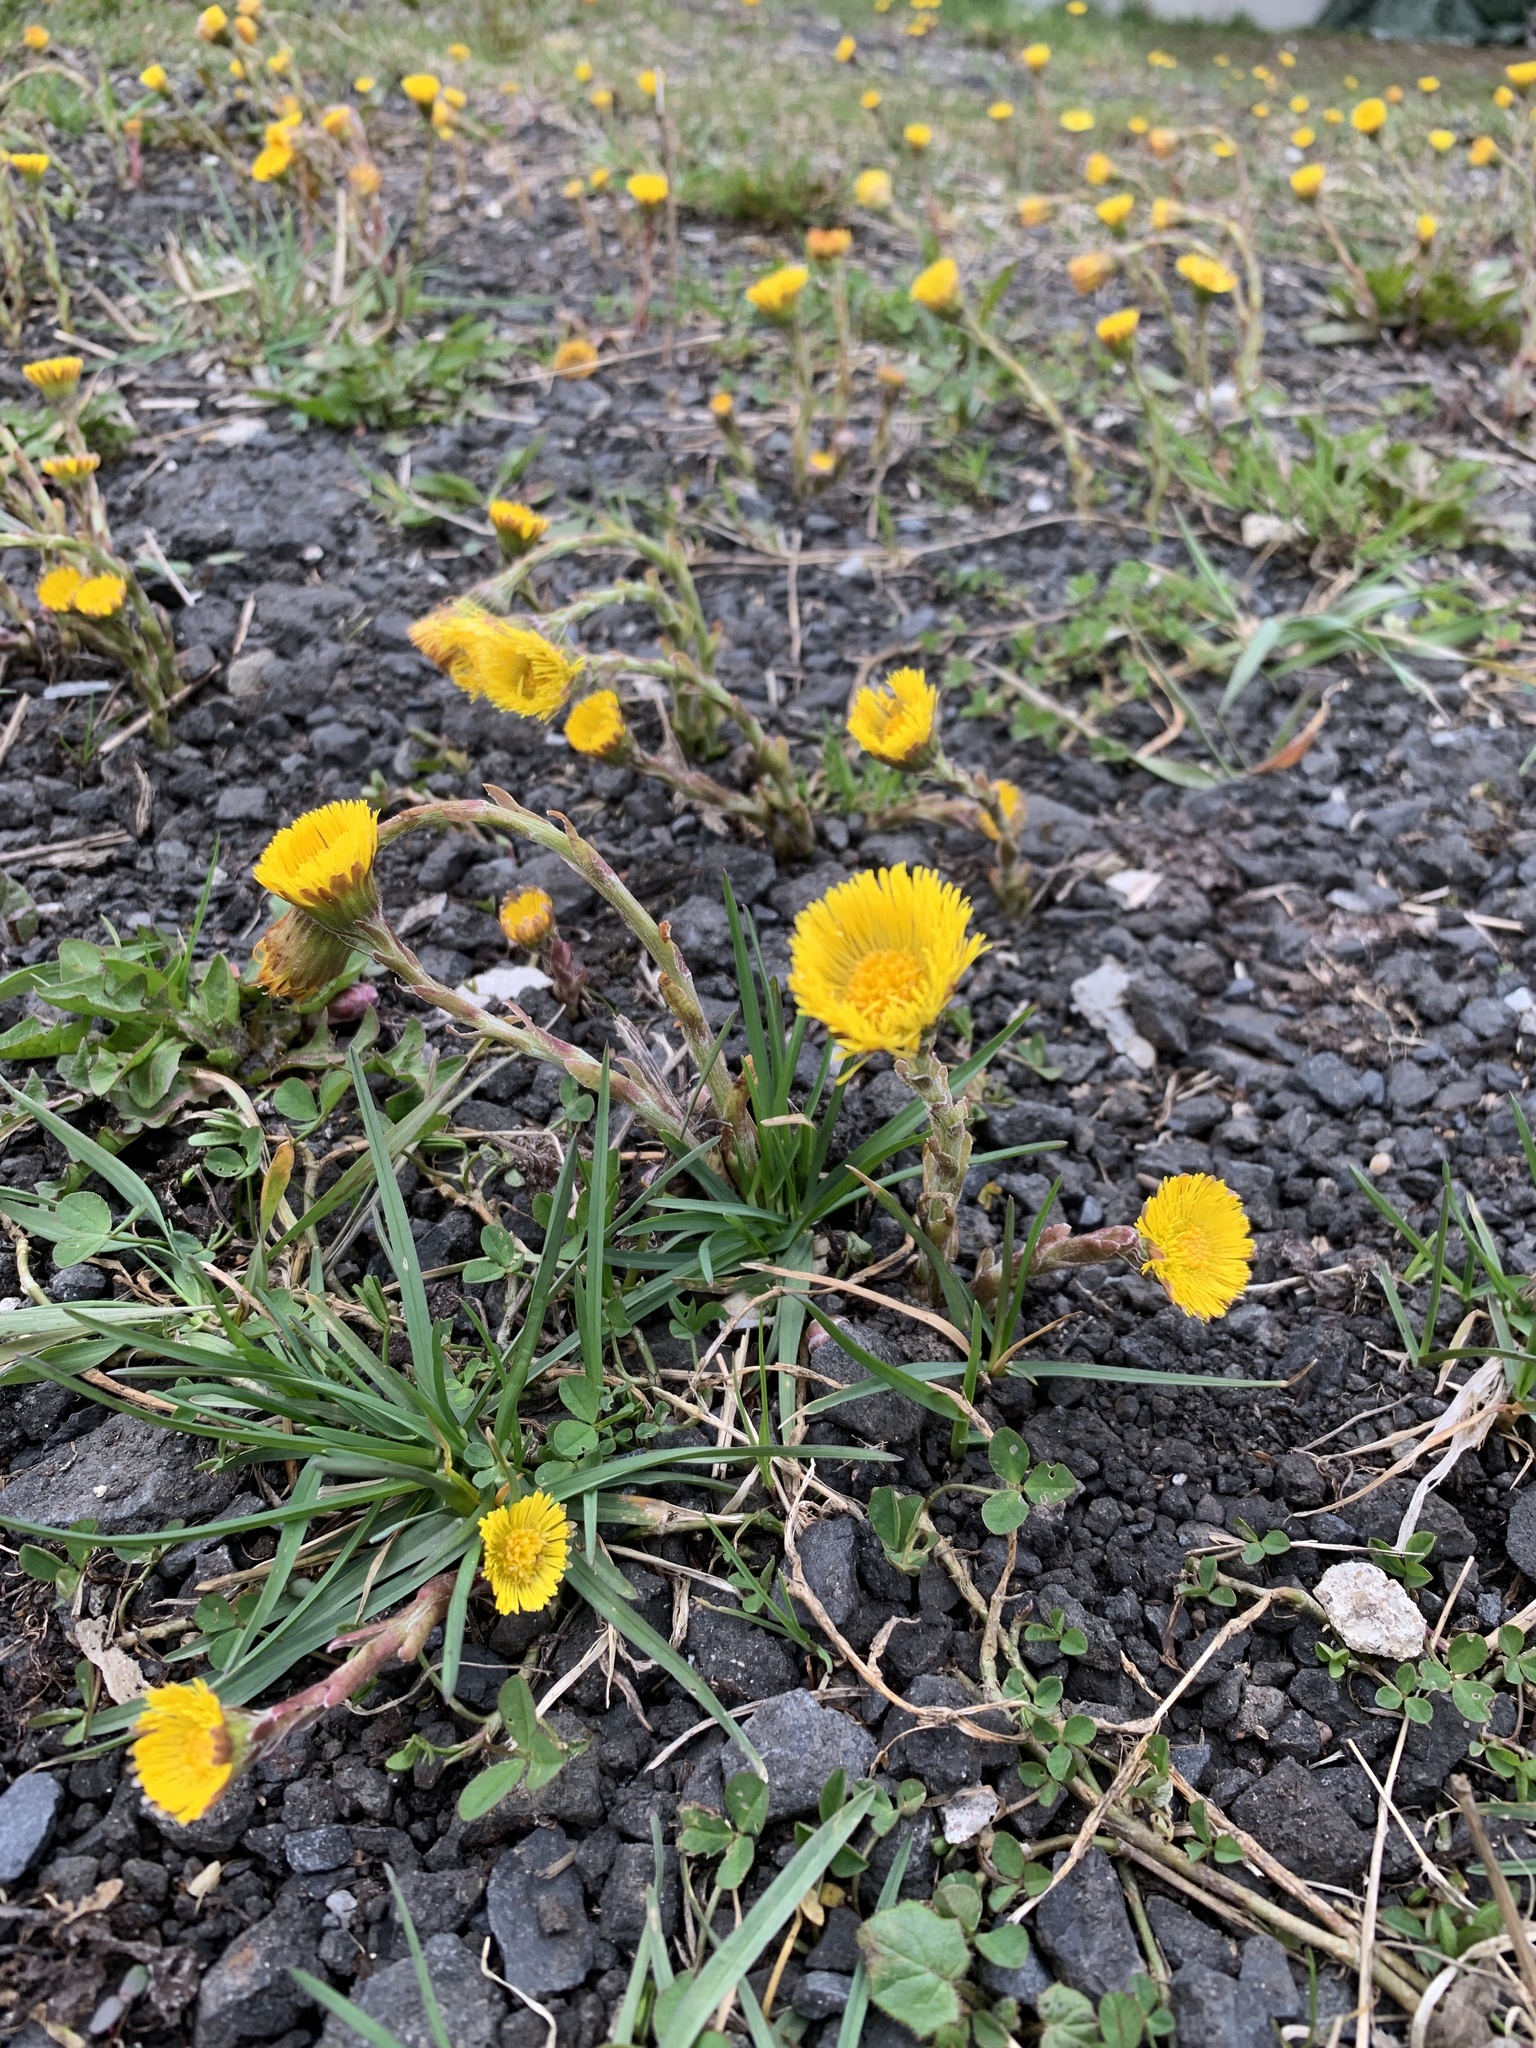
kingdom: Plantae
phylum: Tracheophyta
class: Magnoliopsida
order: Asterales
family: Asteraceae
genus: Tussilago
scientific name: Tussilago farfara
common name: Coltsfoot
